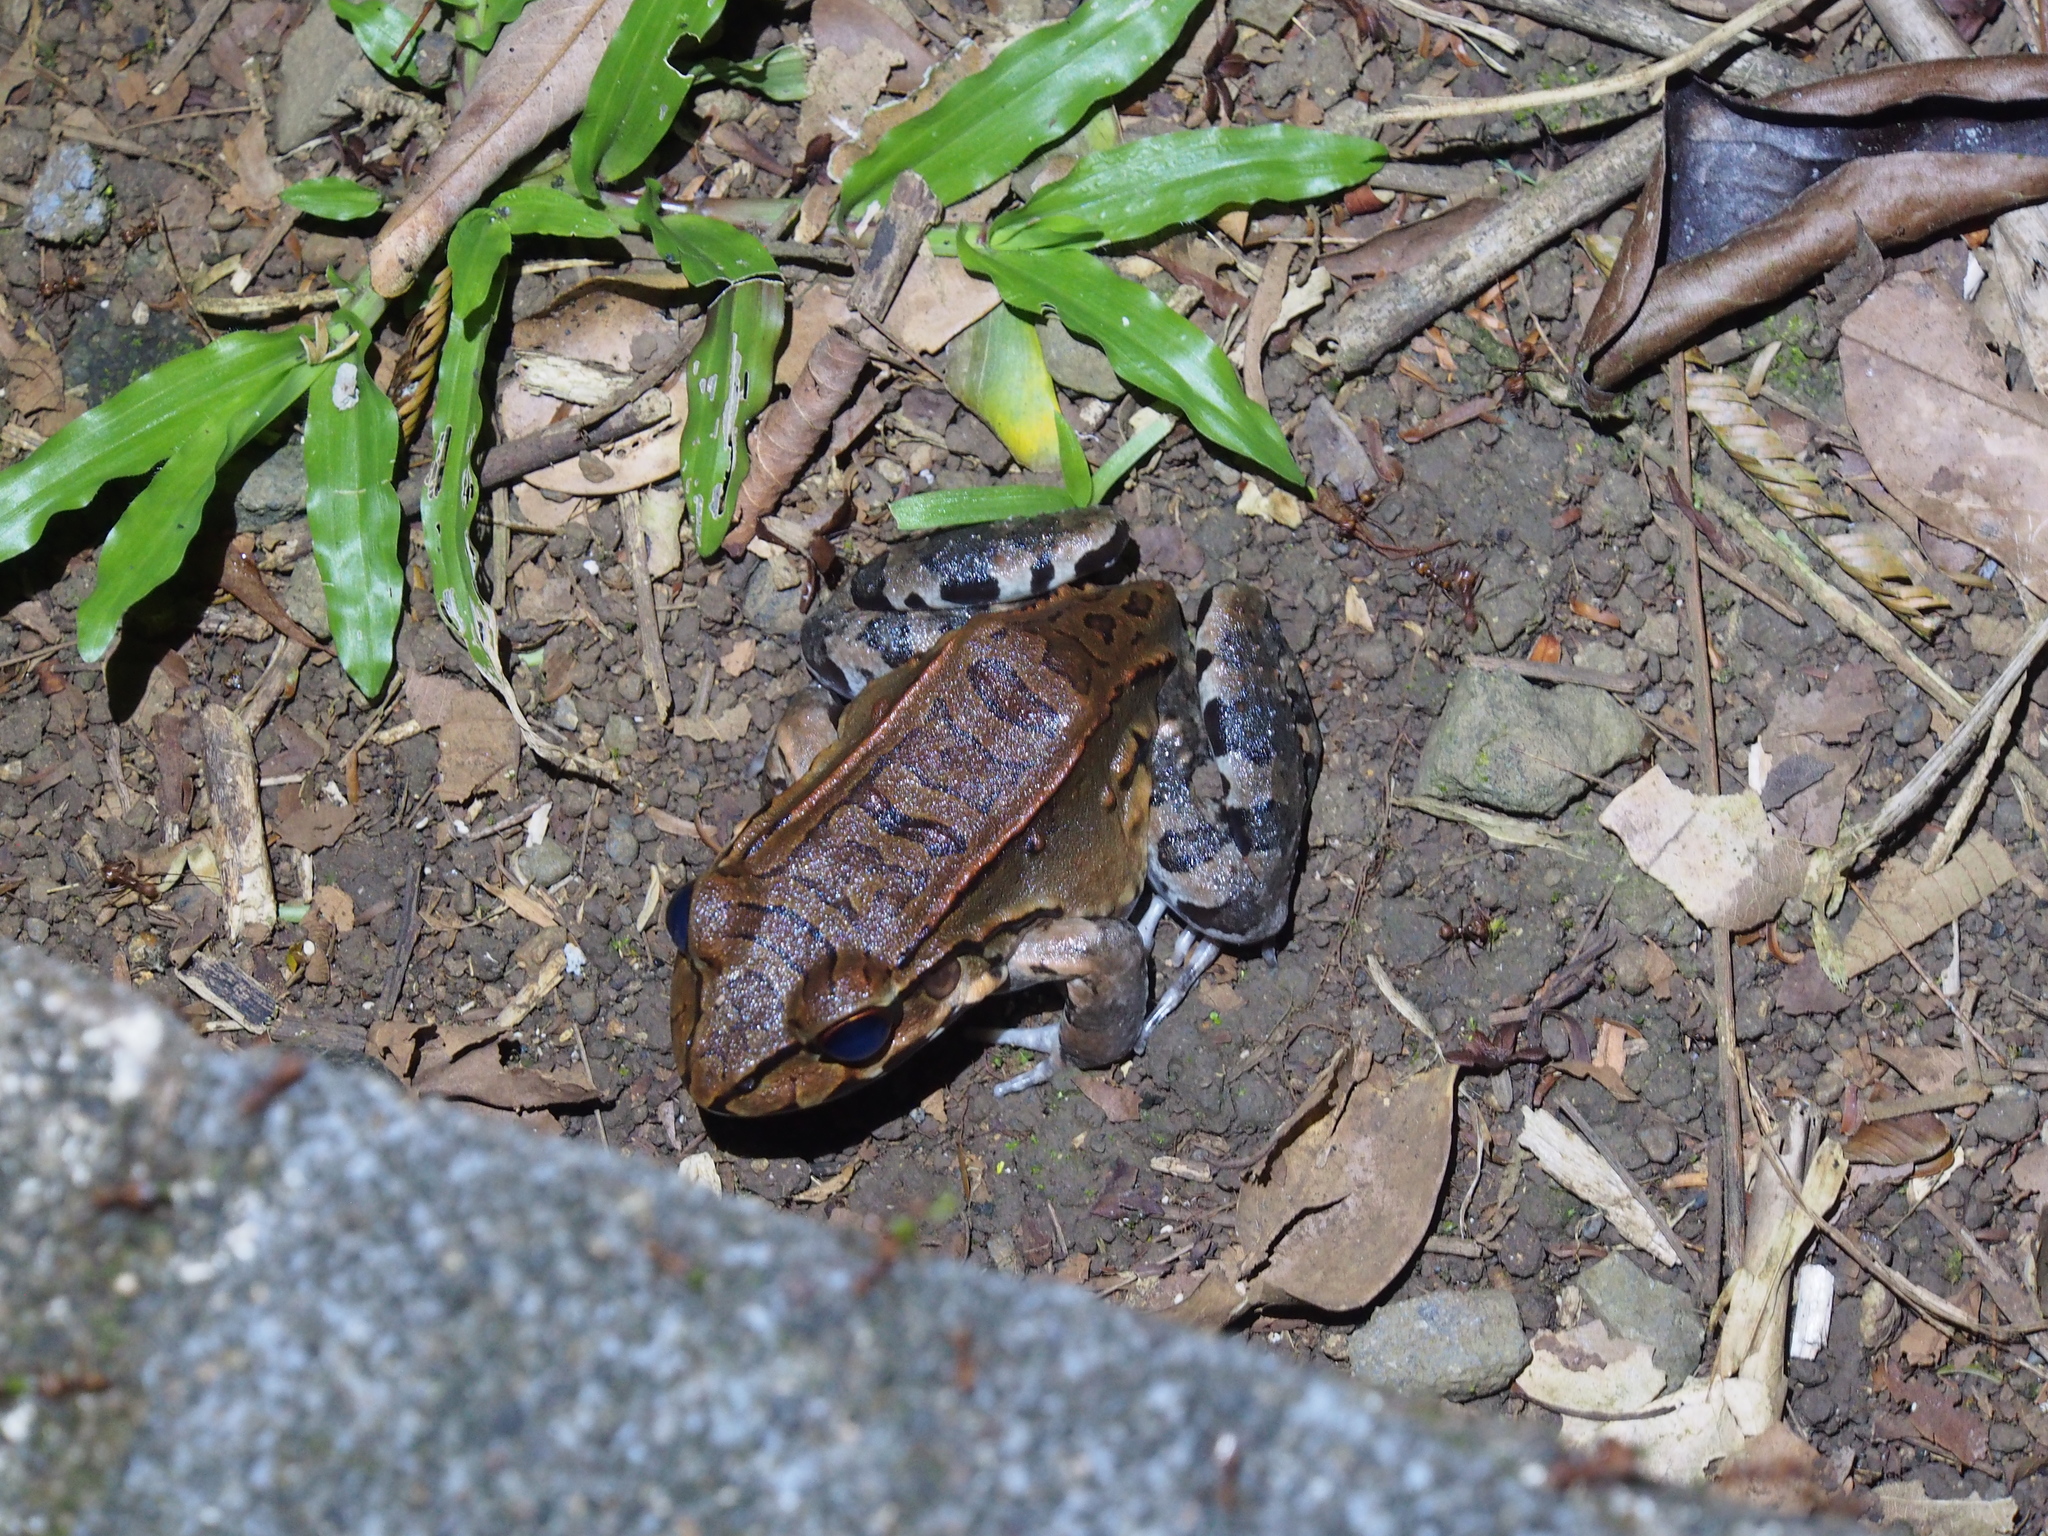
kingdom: Animalia
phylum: Chordata
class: Amphibia
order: Anura
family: Leptodactylidae
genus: Leptodactylus
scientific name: Leptodactylus savagei
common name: Savage's thin-toed frog
